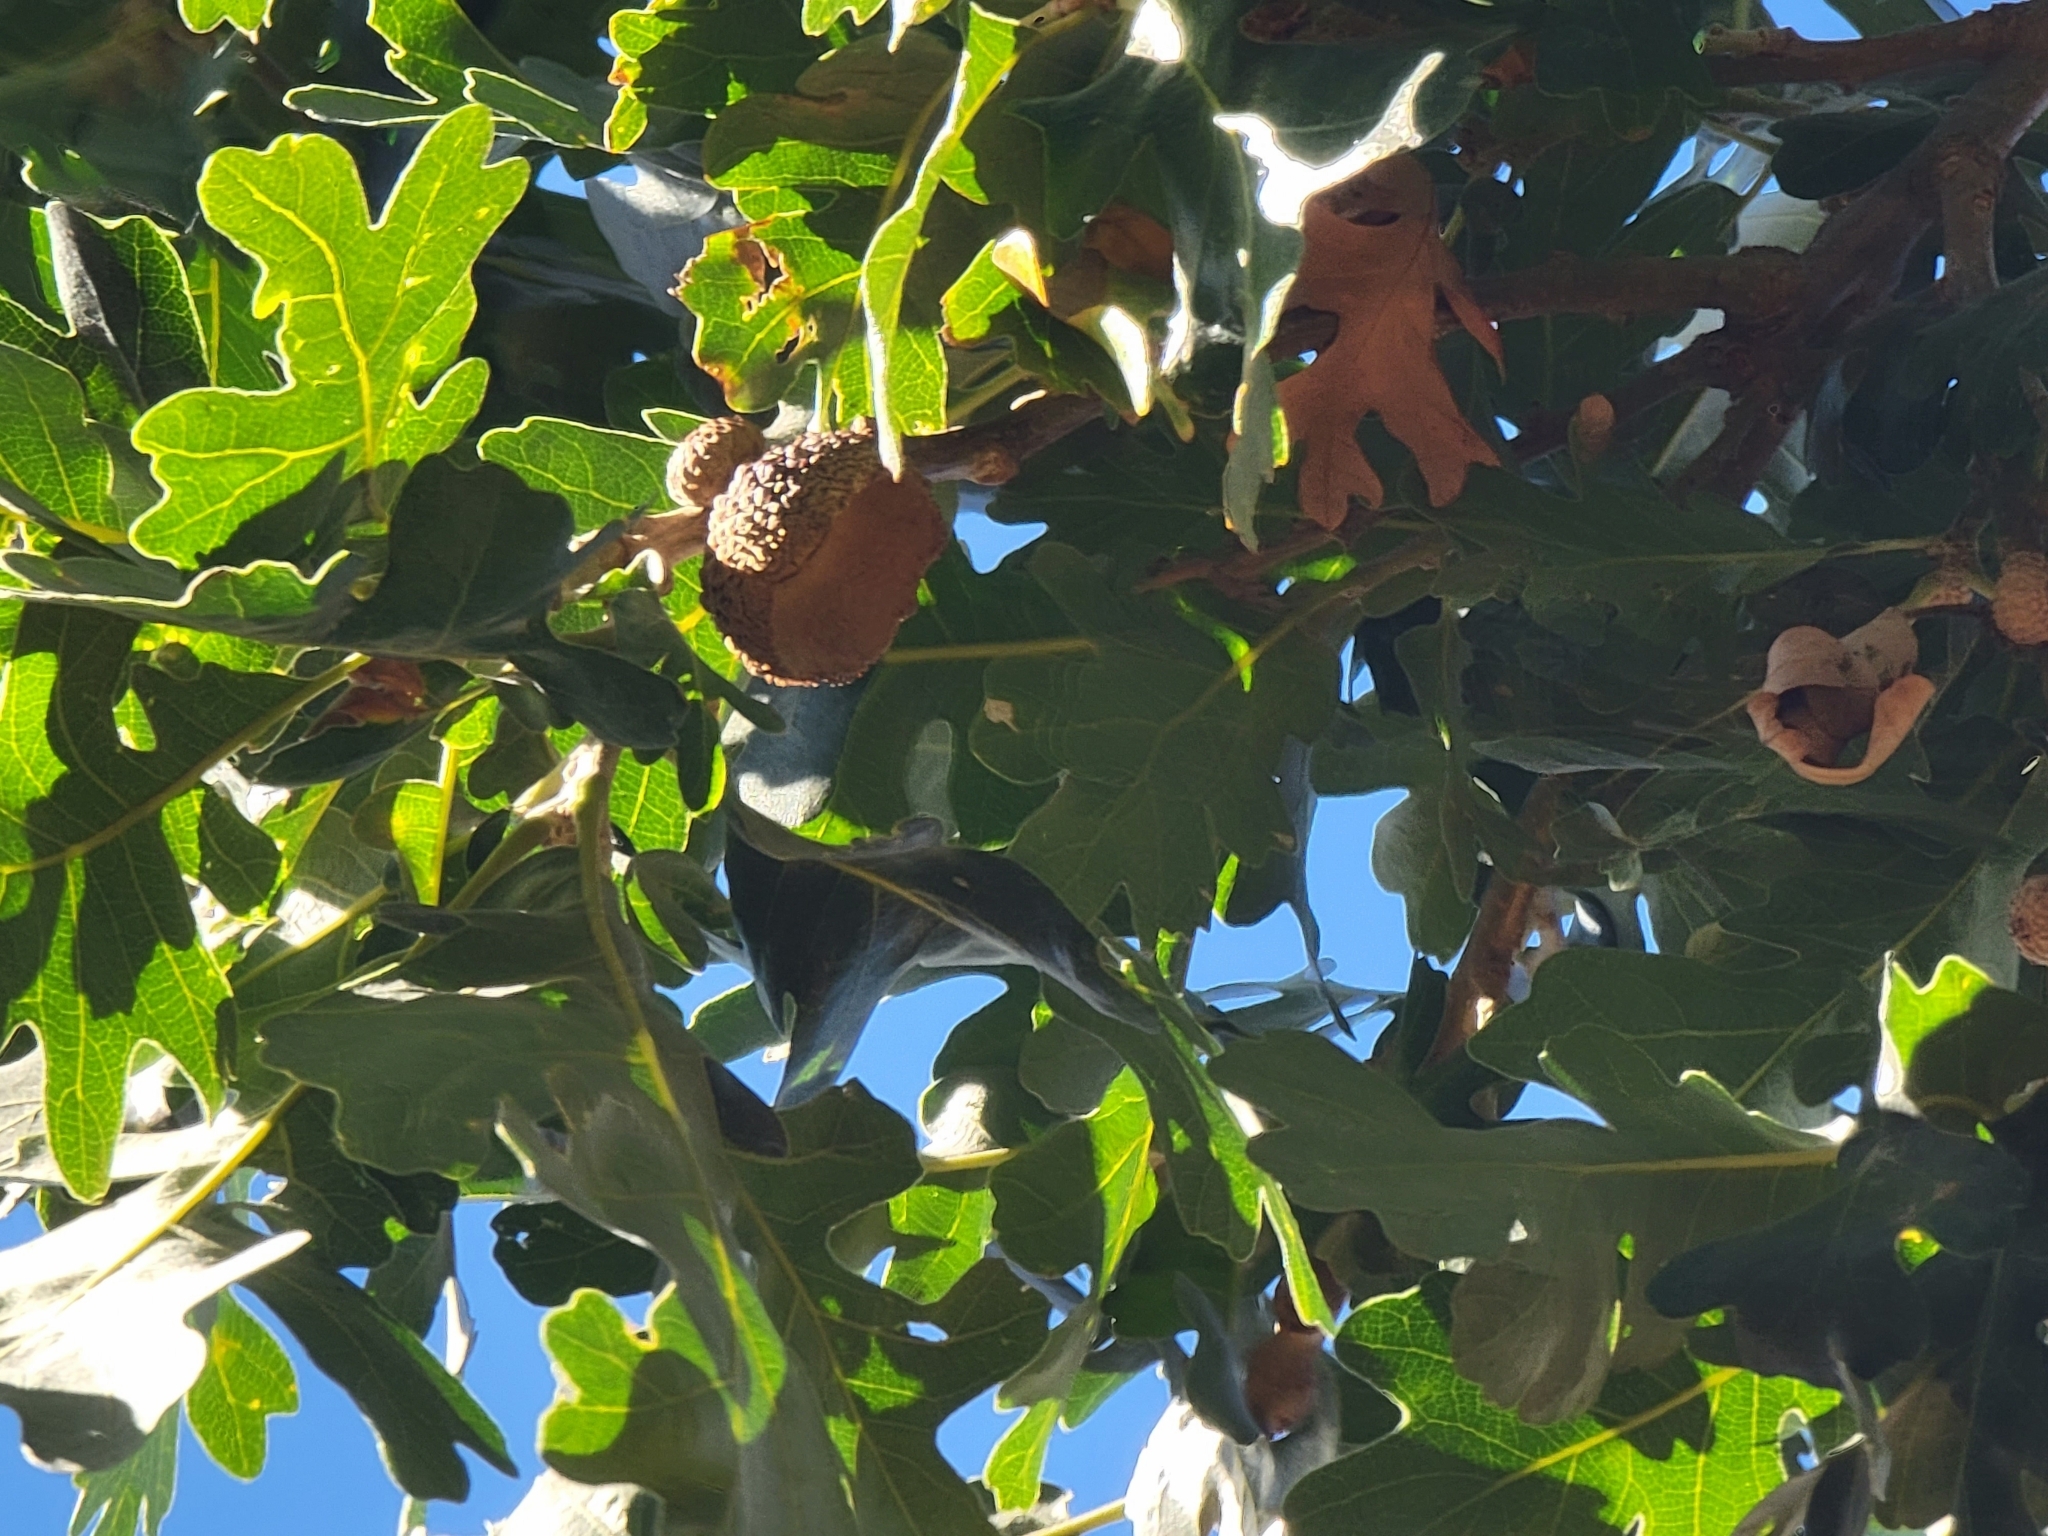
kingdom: Plantae
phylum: Tracheophyta
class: Magnoliopsida
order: Fagales
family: Fagaceae
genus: Quercus
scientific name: Quercus lobata
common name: Valley oak
